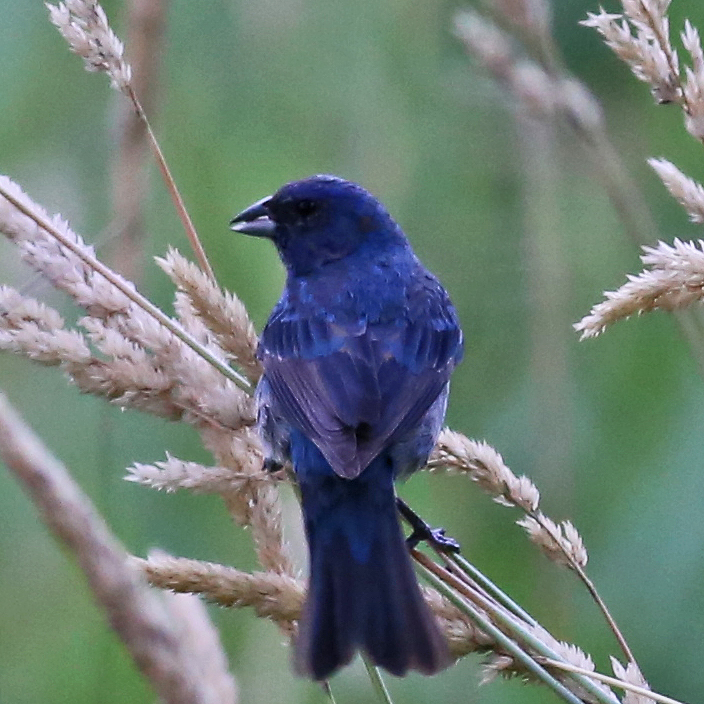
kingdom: Animalia
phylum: Chordata
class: Aves
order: Passeriformes
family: Cardinalidae
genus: Passerina
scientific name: Passerina cyanea
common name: Indigo bunting
